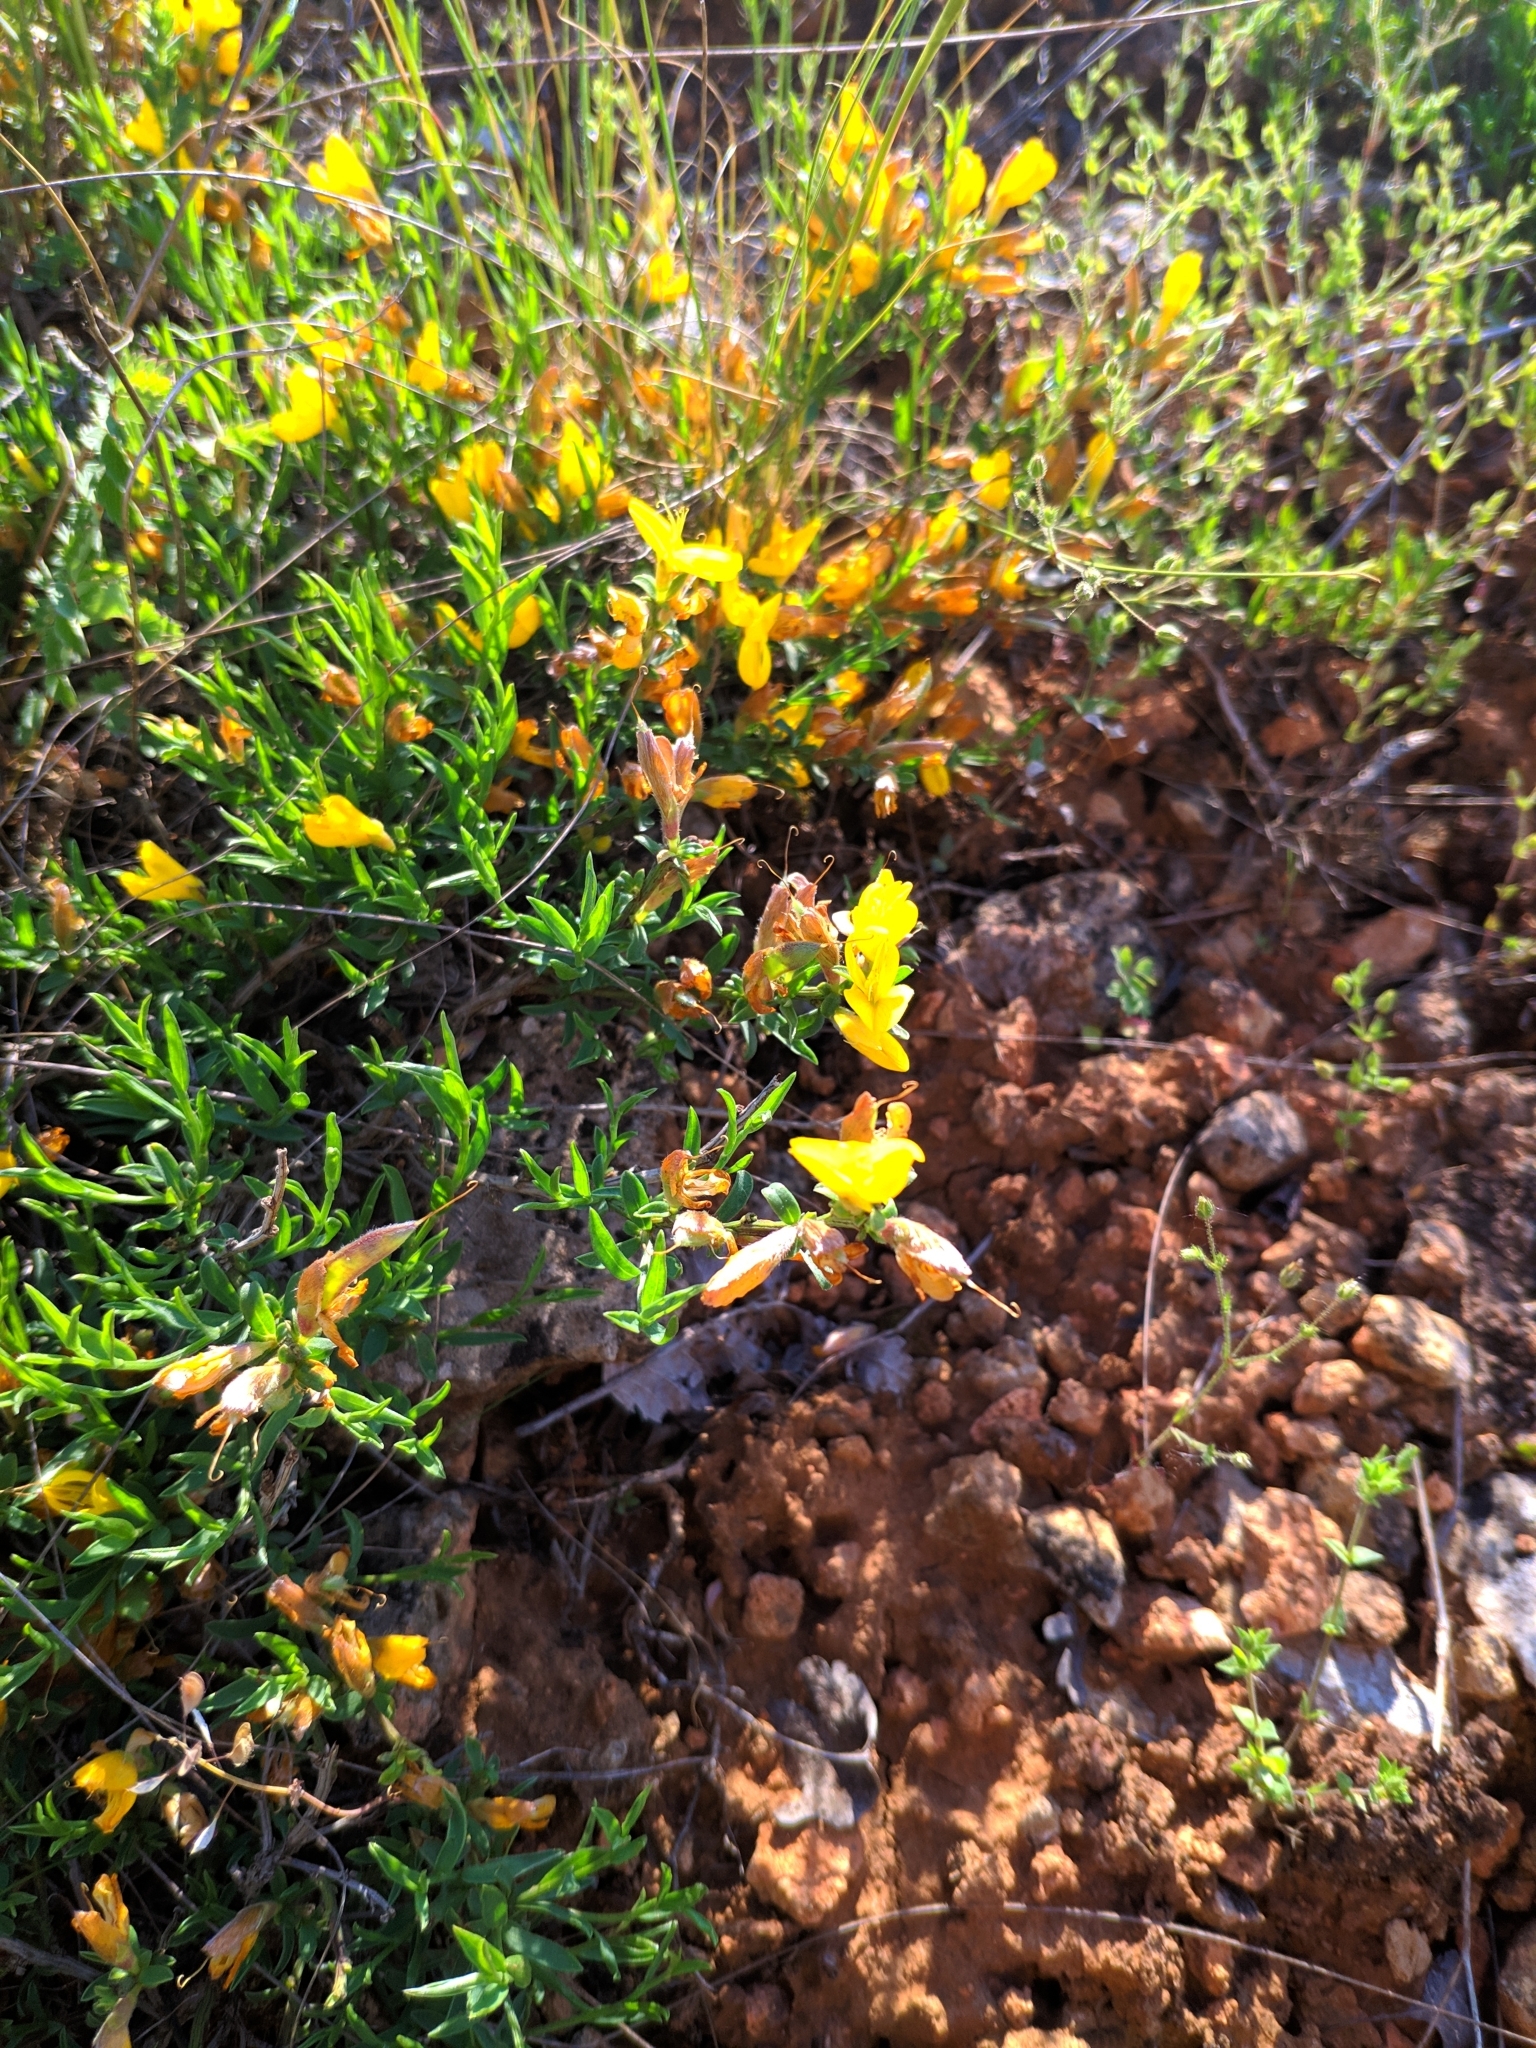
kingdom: Plantae
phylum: Tracheophyta
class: Magnoliopsida
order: Fabales
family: Fabaceae
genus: Genista
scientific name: Genista albida
